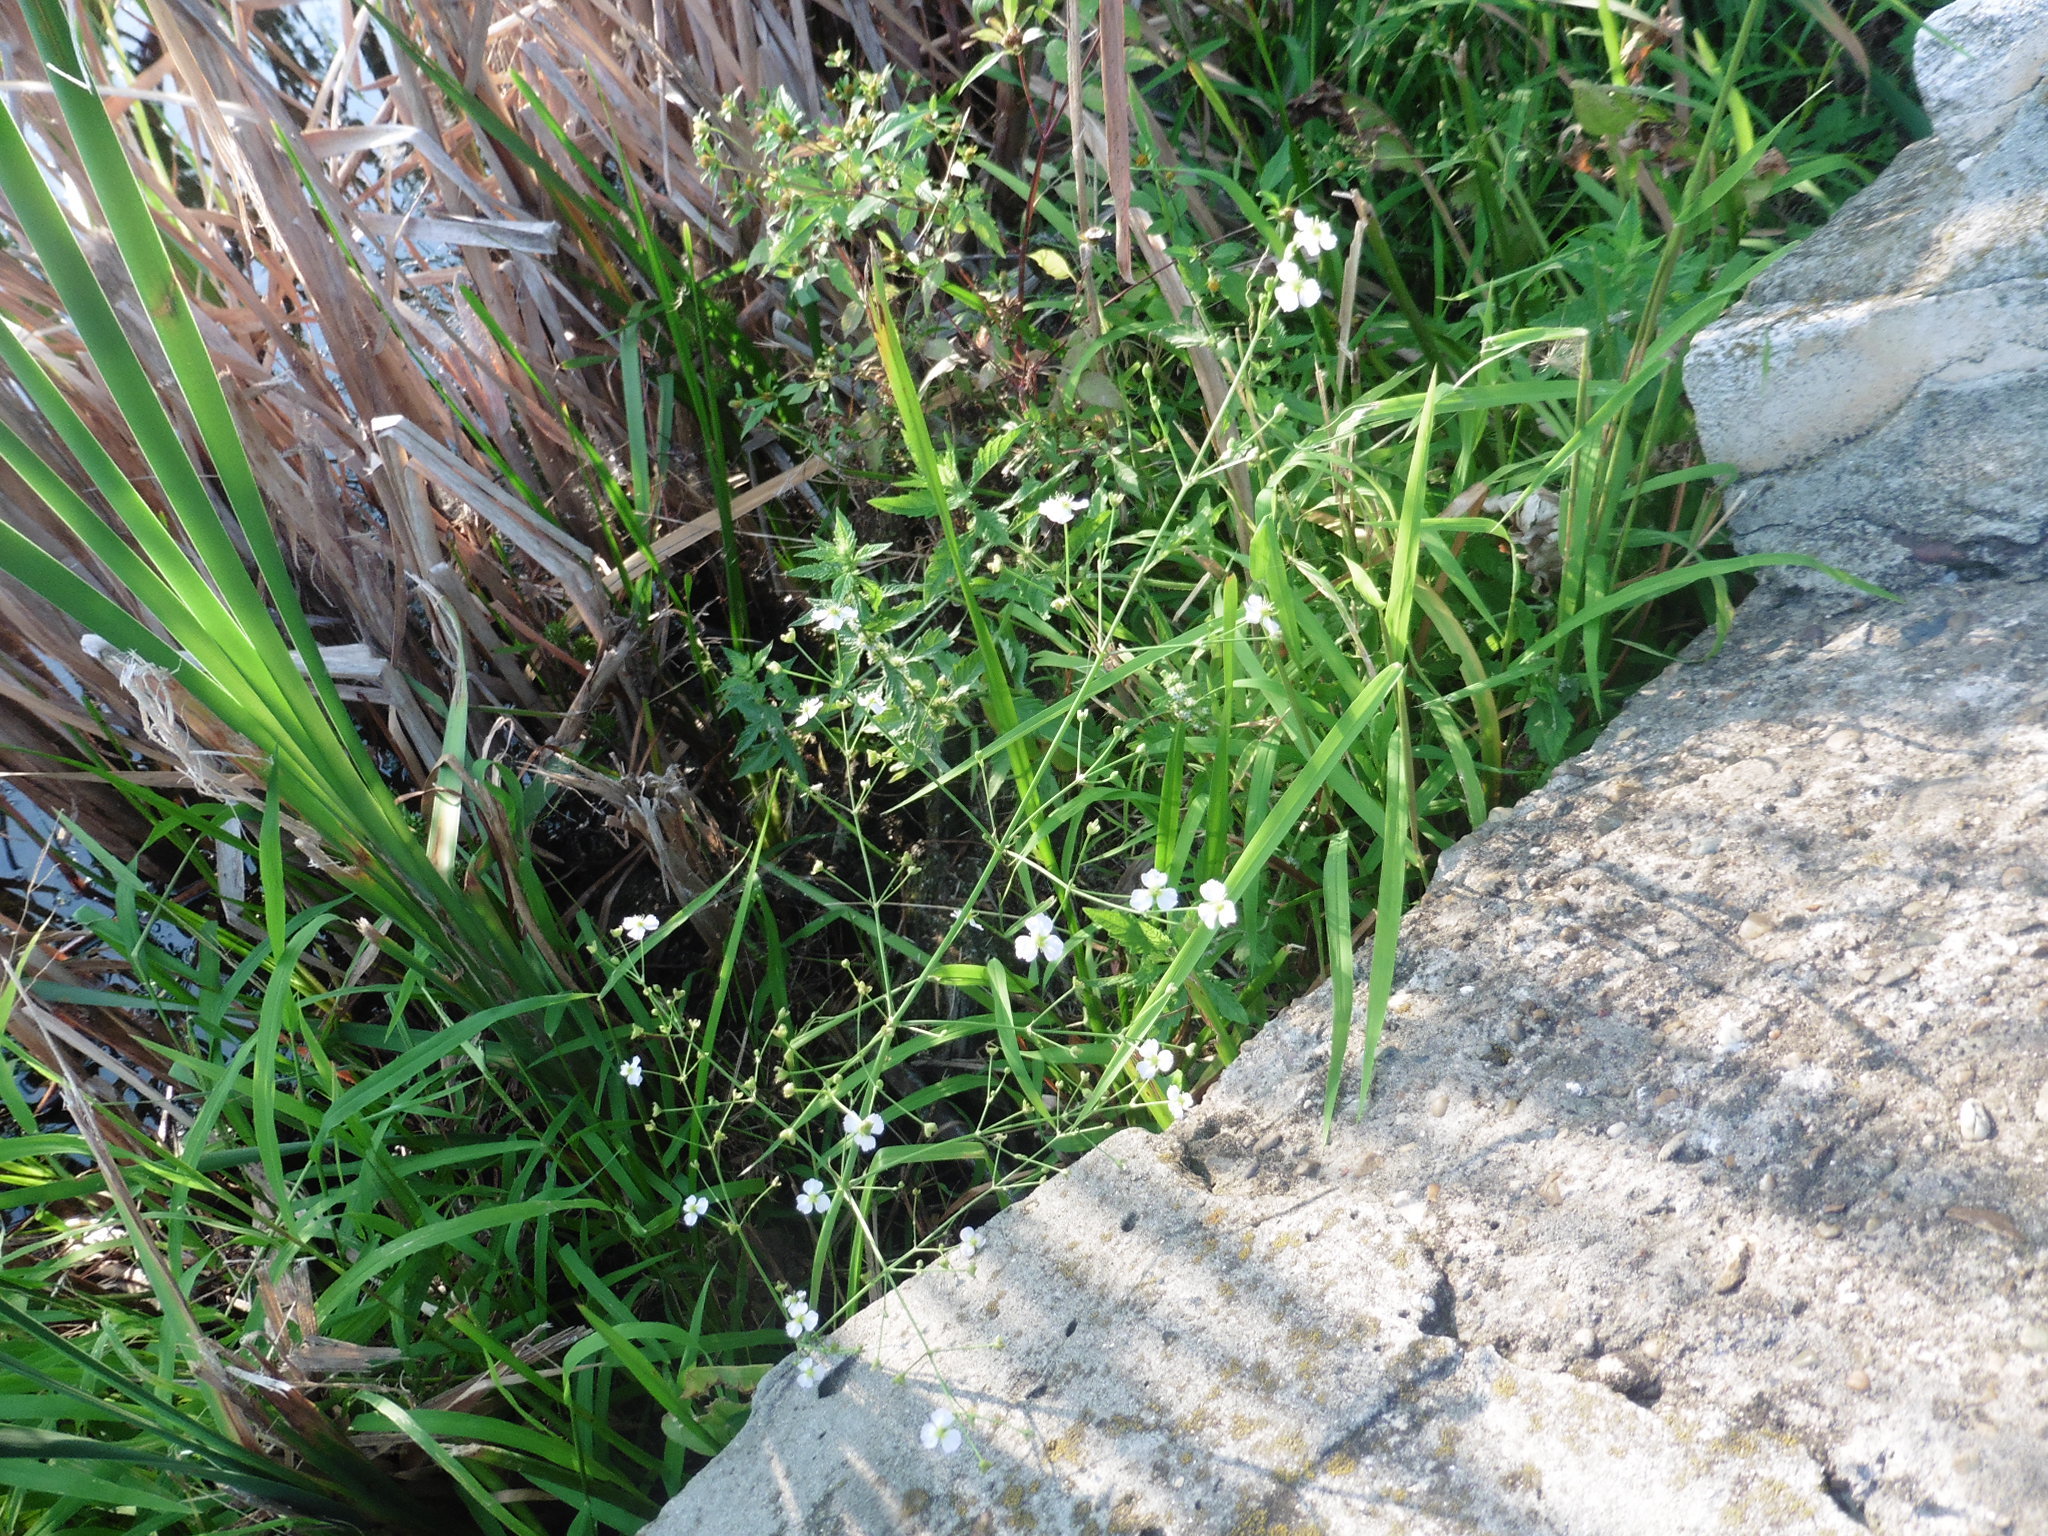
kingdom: Plantae
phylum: Tracheophyta
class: Liliopsida
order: Alismatales
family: Alismataceae
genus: Alisma
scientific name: Alisma plantago-aquatica
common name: Water-plantain
